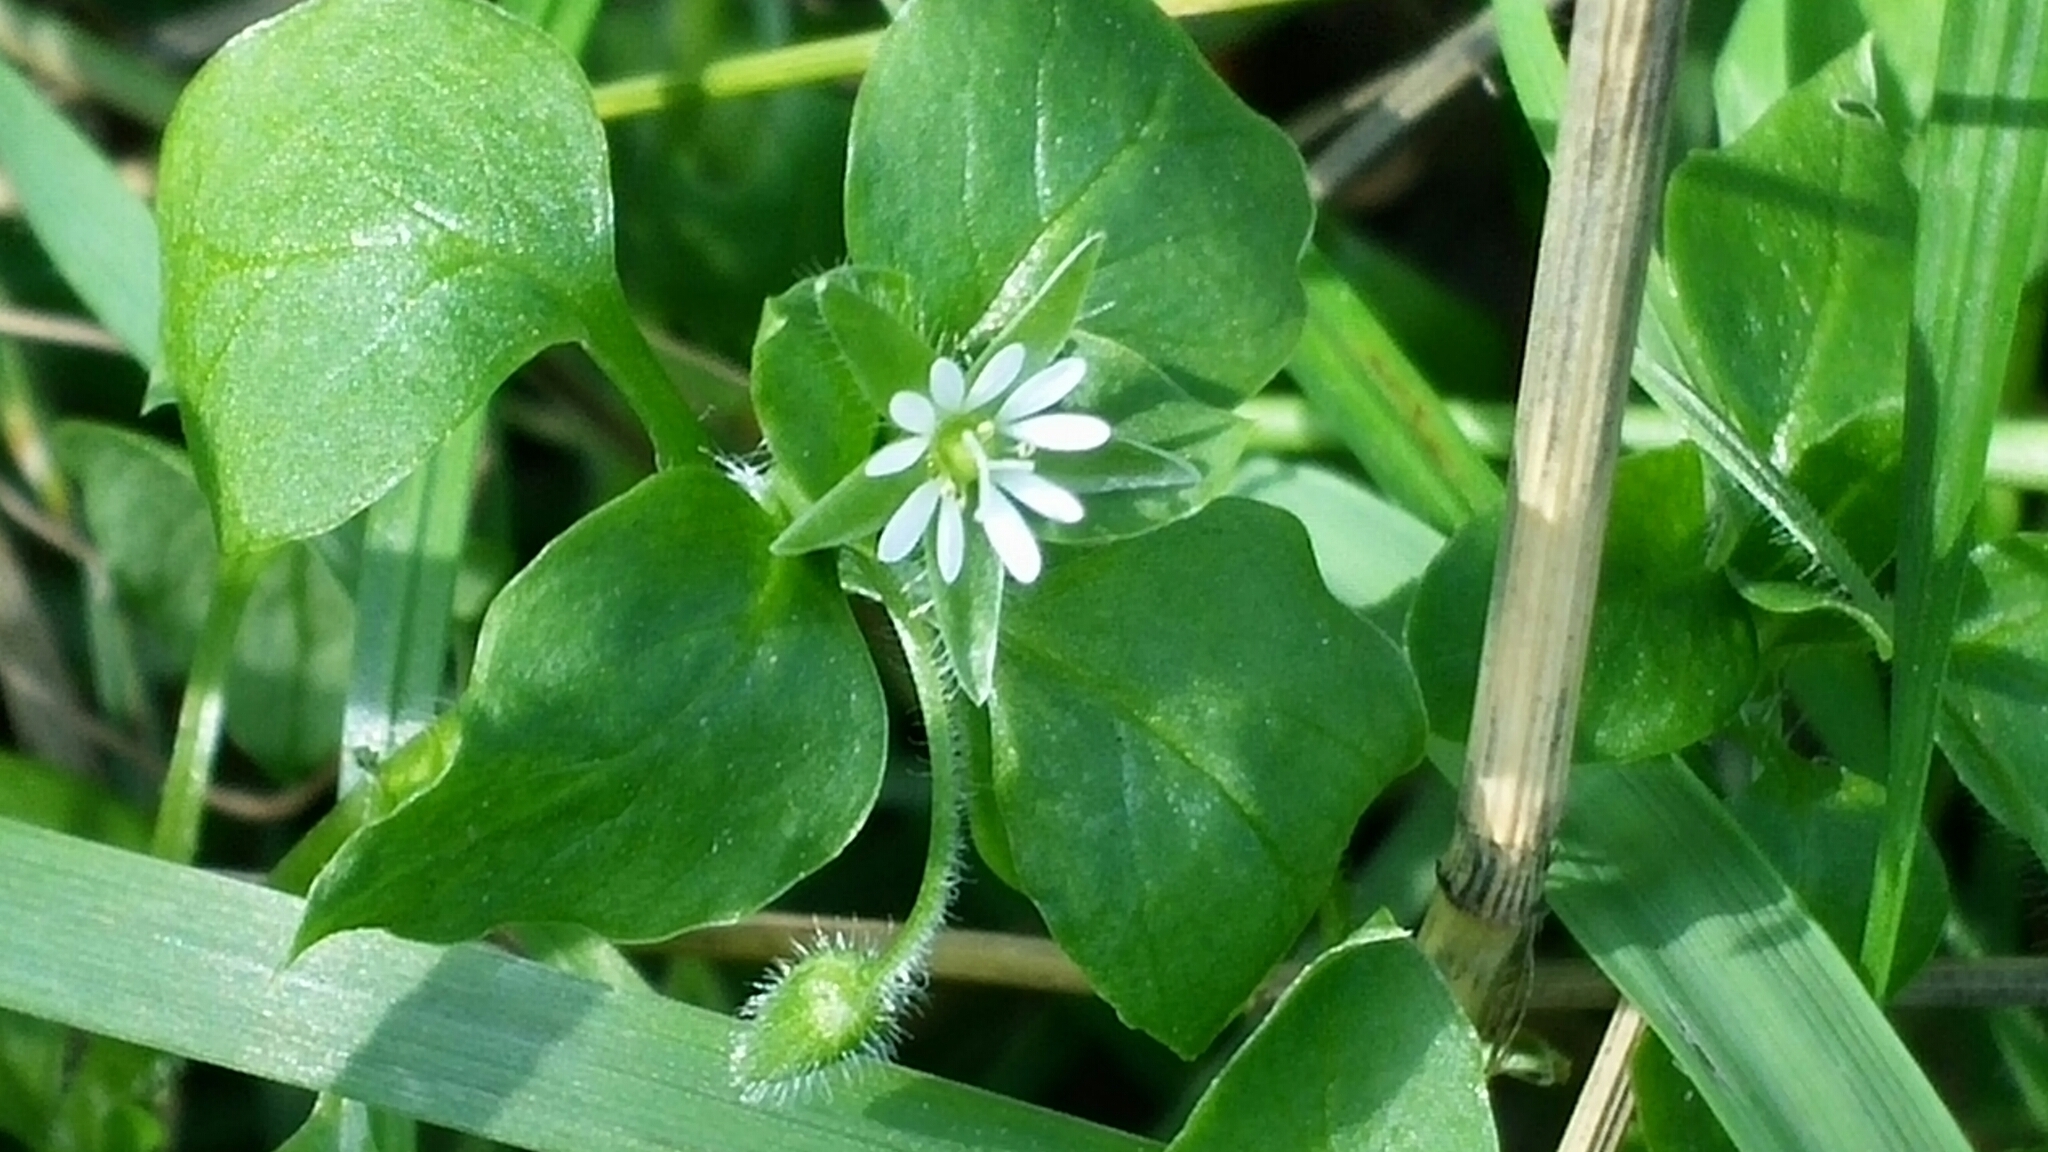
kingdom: Plantae
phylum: Tracheophyta
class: Magnoliopsida
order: Caryophyllales
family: Caryophyllaceae
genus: Stellaria
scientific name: Stellaria media
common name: Common chickweed
